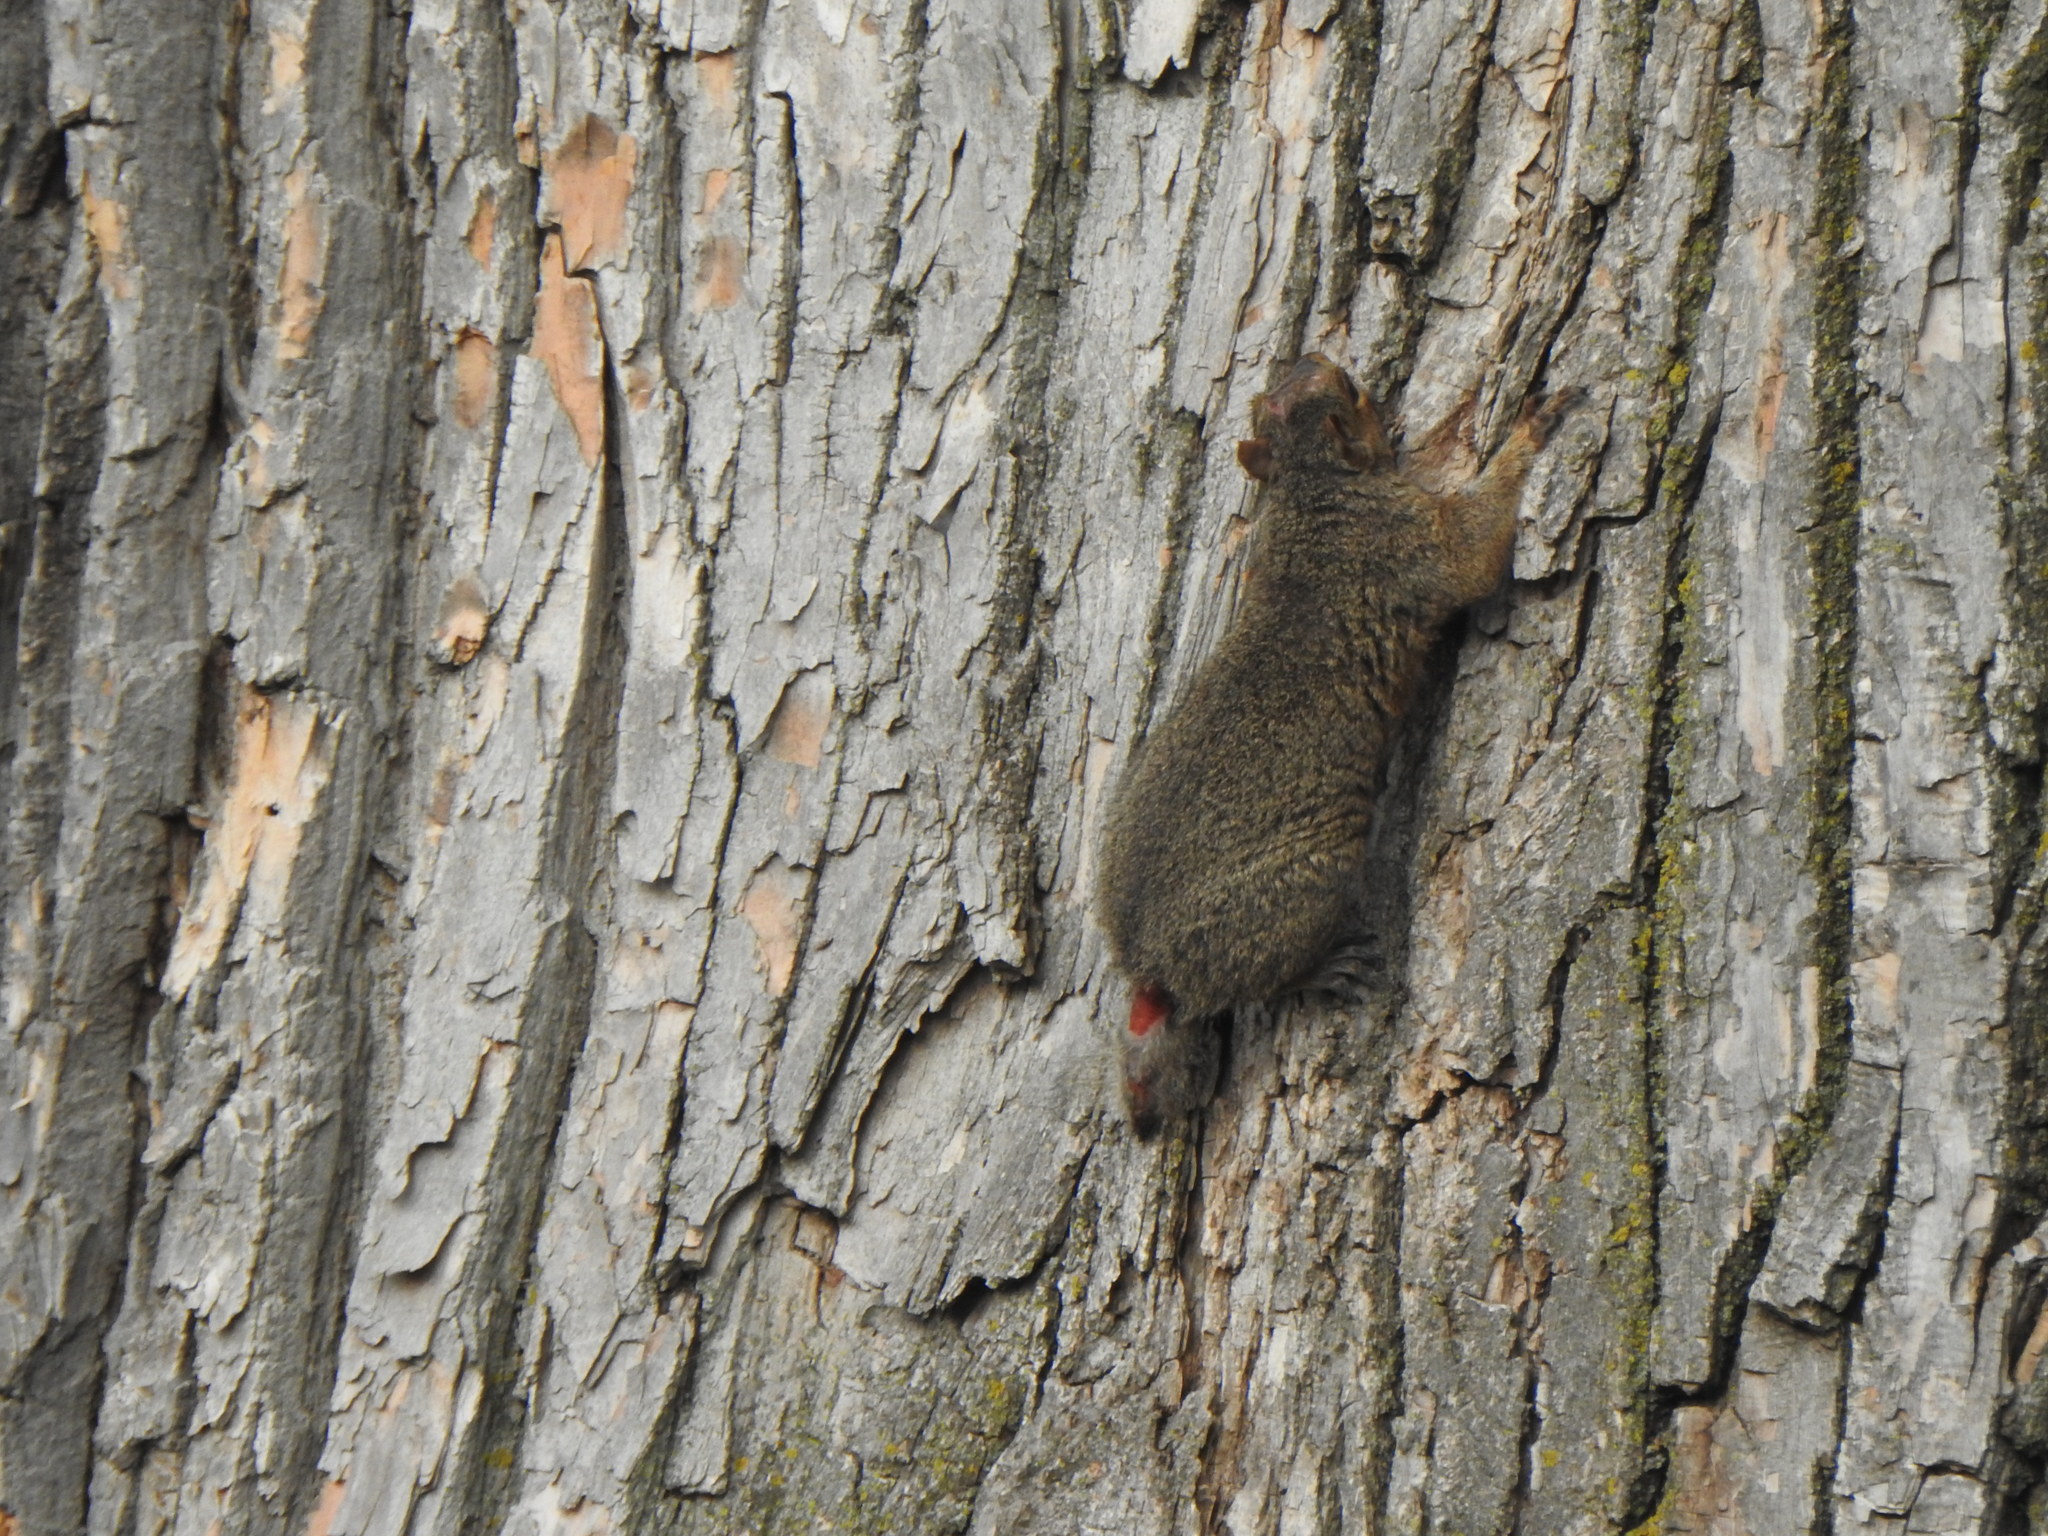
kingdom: Animalia
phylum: Chordata
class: Mammalia
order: Rodentia
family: Sciuridae
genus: Sciurus
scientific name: Sciurus carolinensis
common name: Eastern gray squirrel
